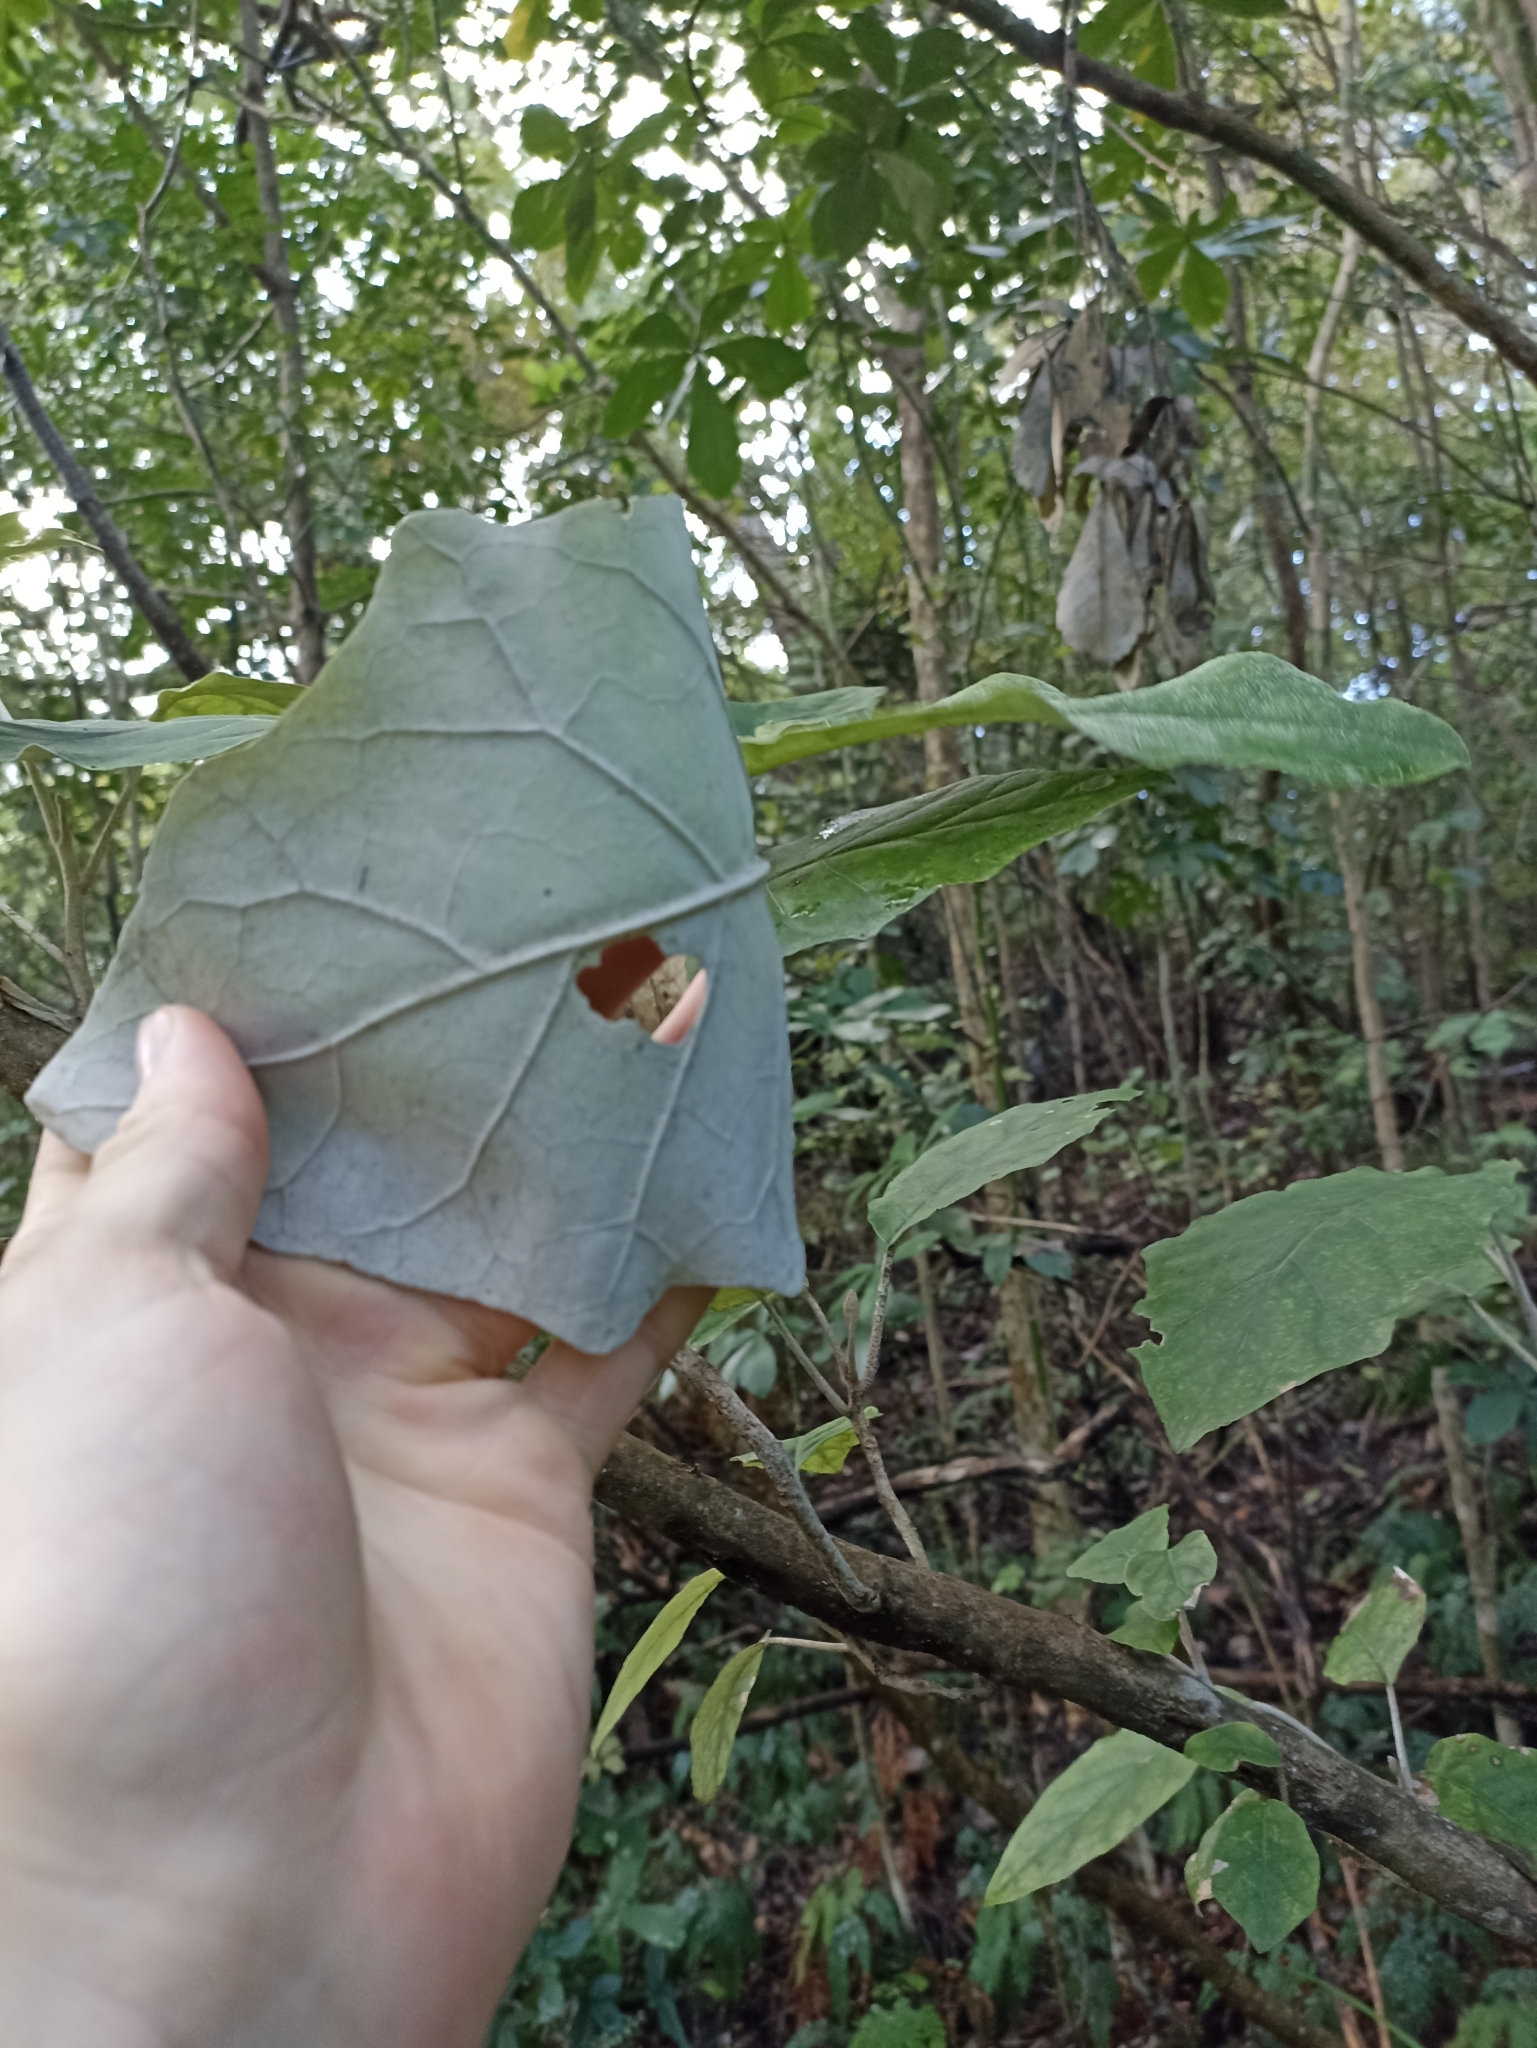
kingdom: Plantae
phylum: Tracheophyta
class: Magnoliopsida
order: Asterales
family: Asteraceae
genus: Brachyglottis
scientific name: Brachyglottis repanda
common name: Hedge ragwort
